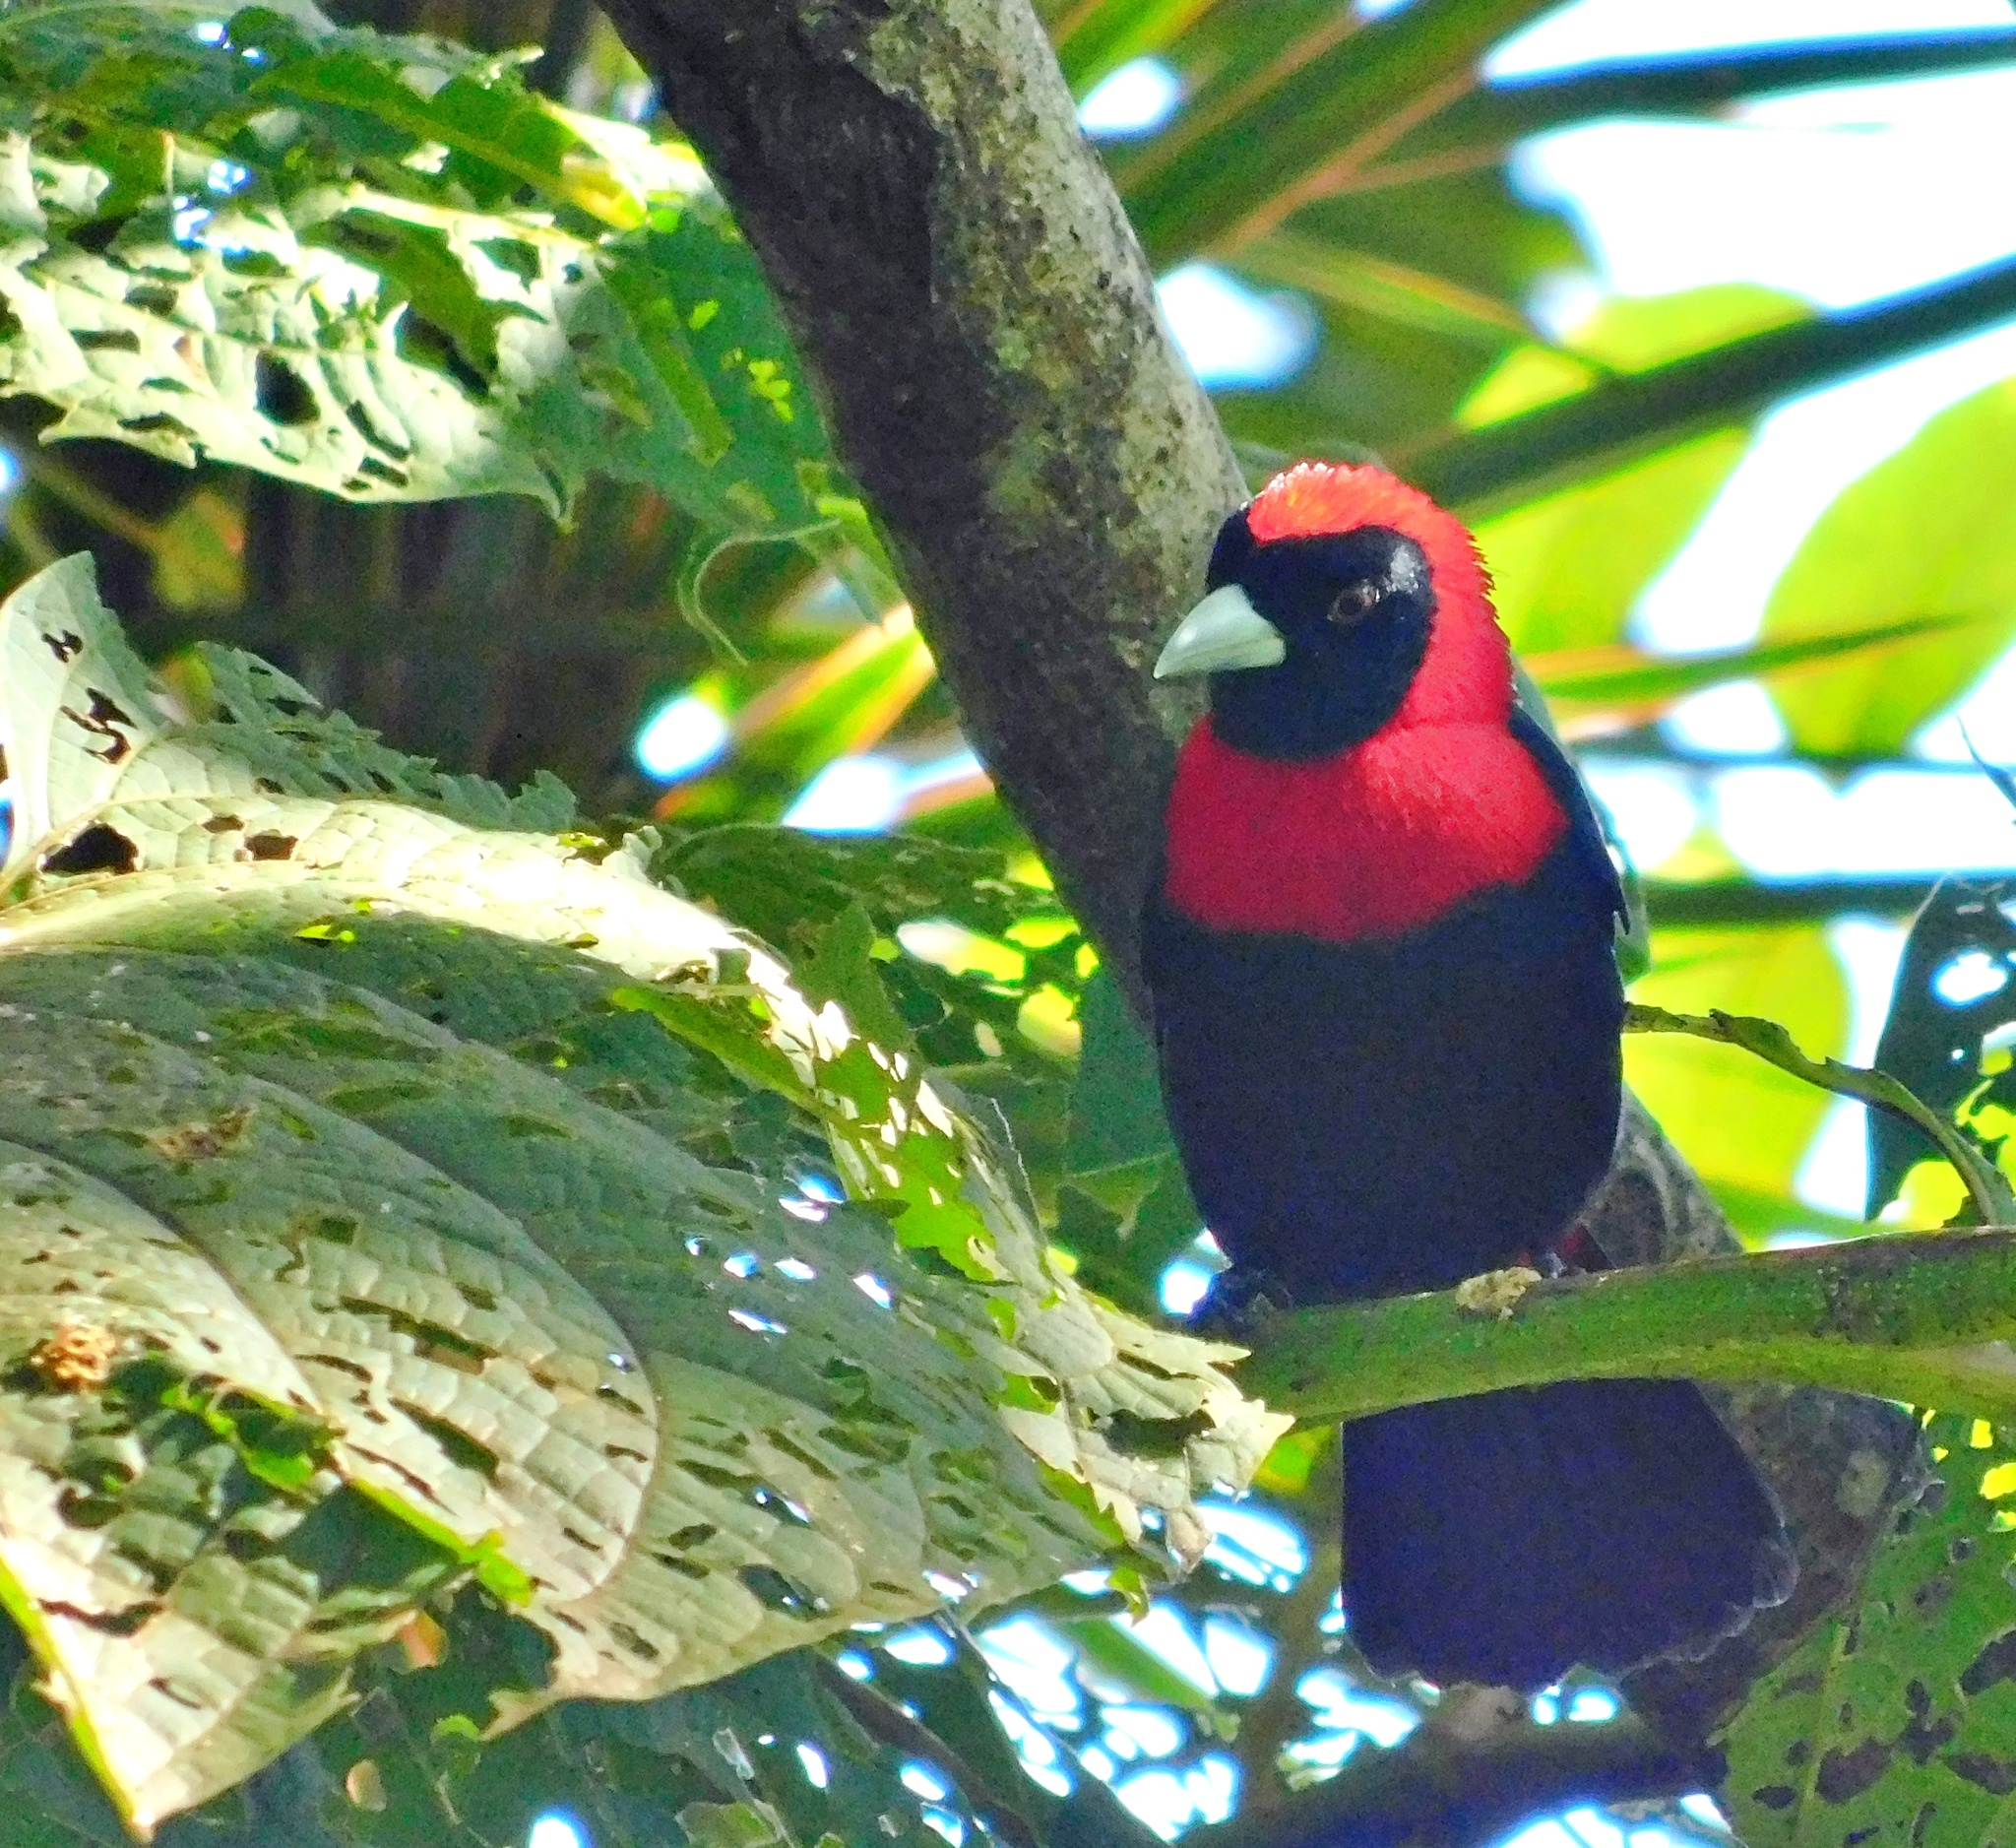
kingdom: Animalia
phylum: Chordata
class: Aves
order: Passeriformes
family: Thraupidae
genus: Ramphocelus
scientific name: Ramphocelus sanguinolentus
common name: Crimson-collared tanager
